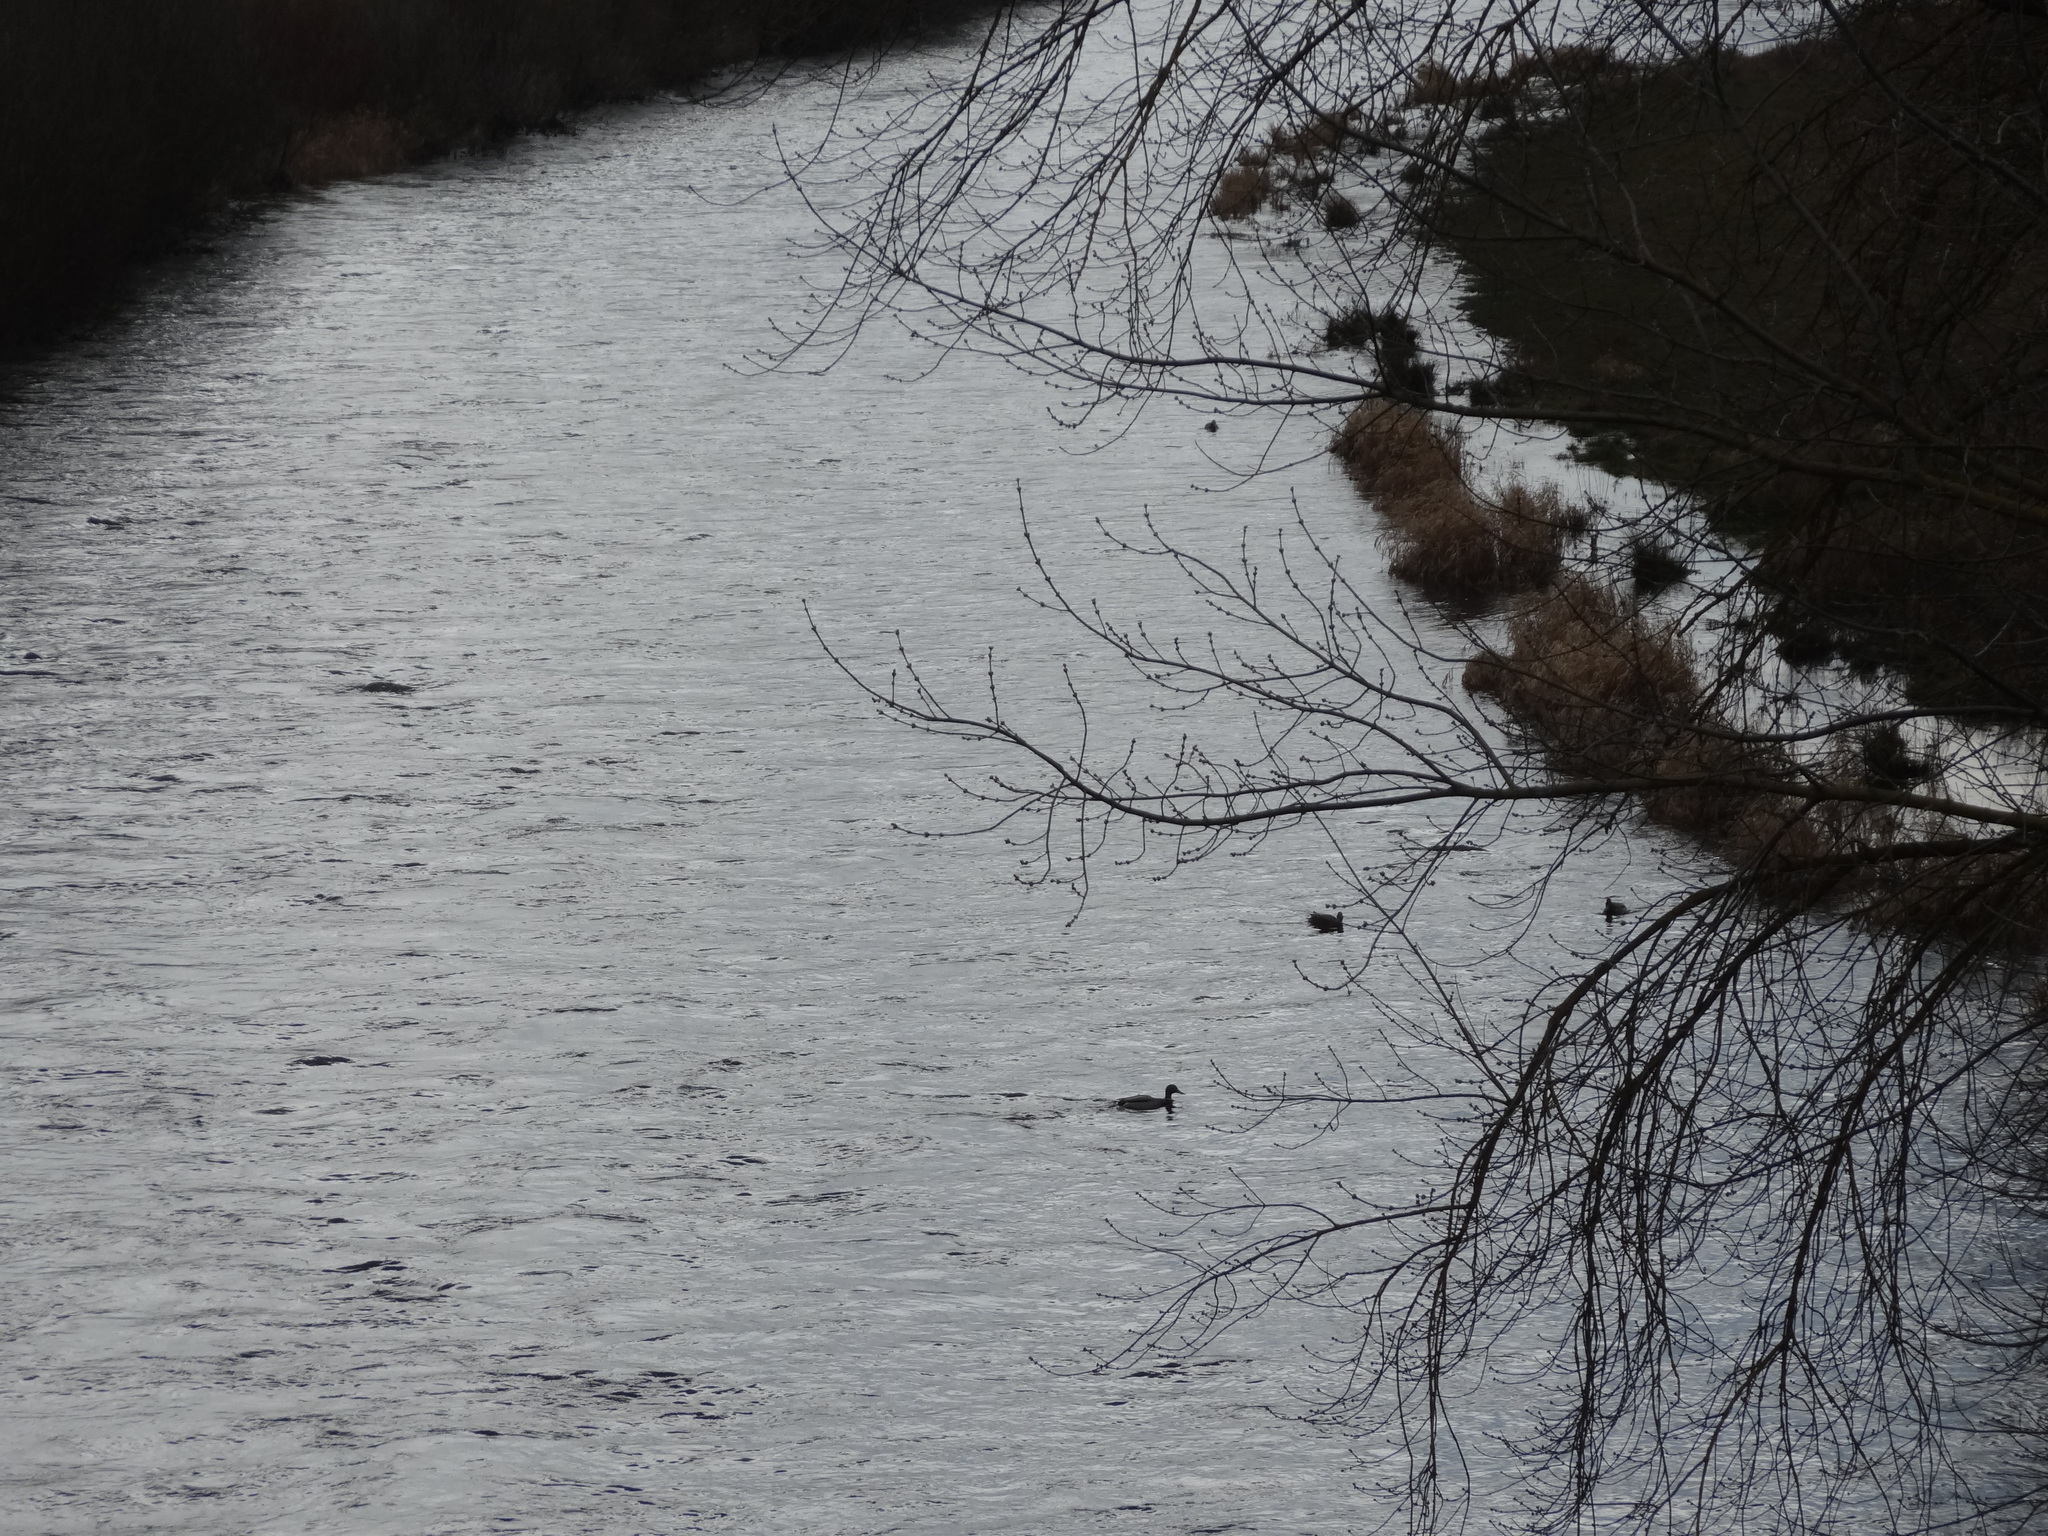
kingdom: Animalia
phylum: Chordata
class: Aves
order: Anseriformes
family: Anatidae
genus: Mergus
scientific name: Mergus merganser
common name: Common merganser
